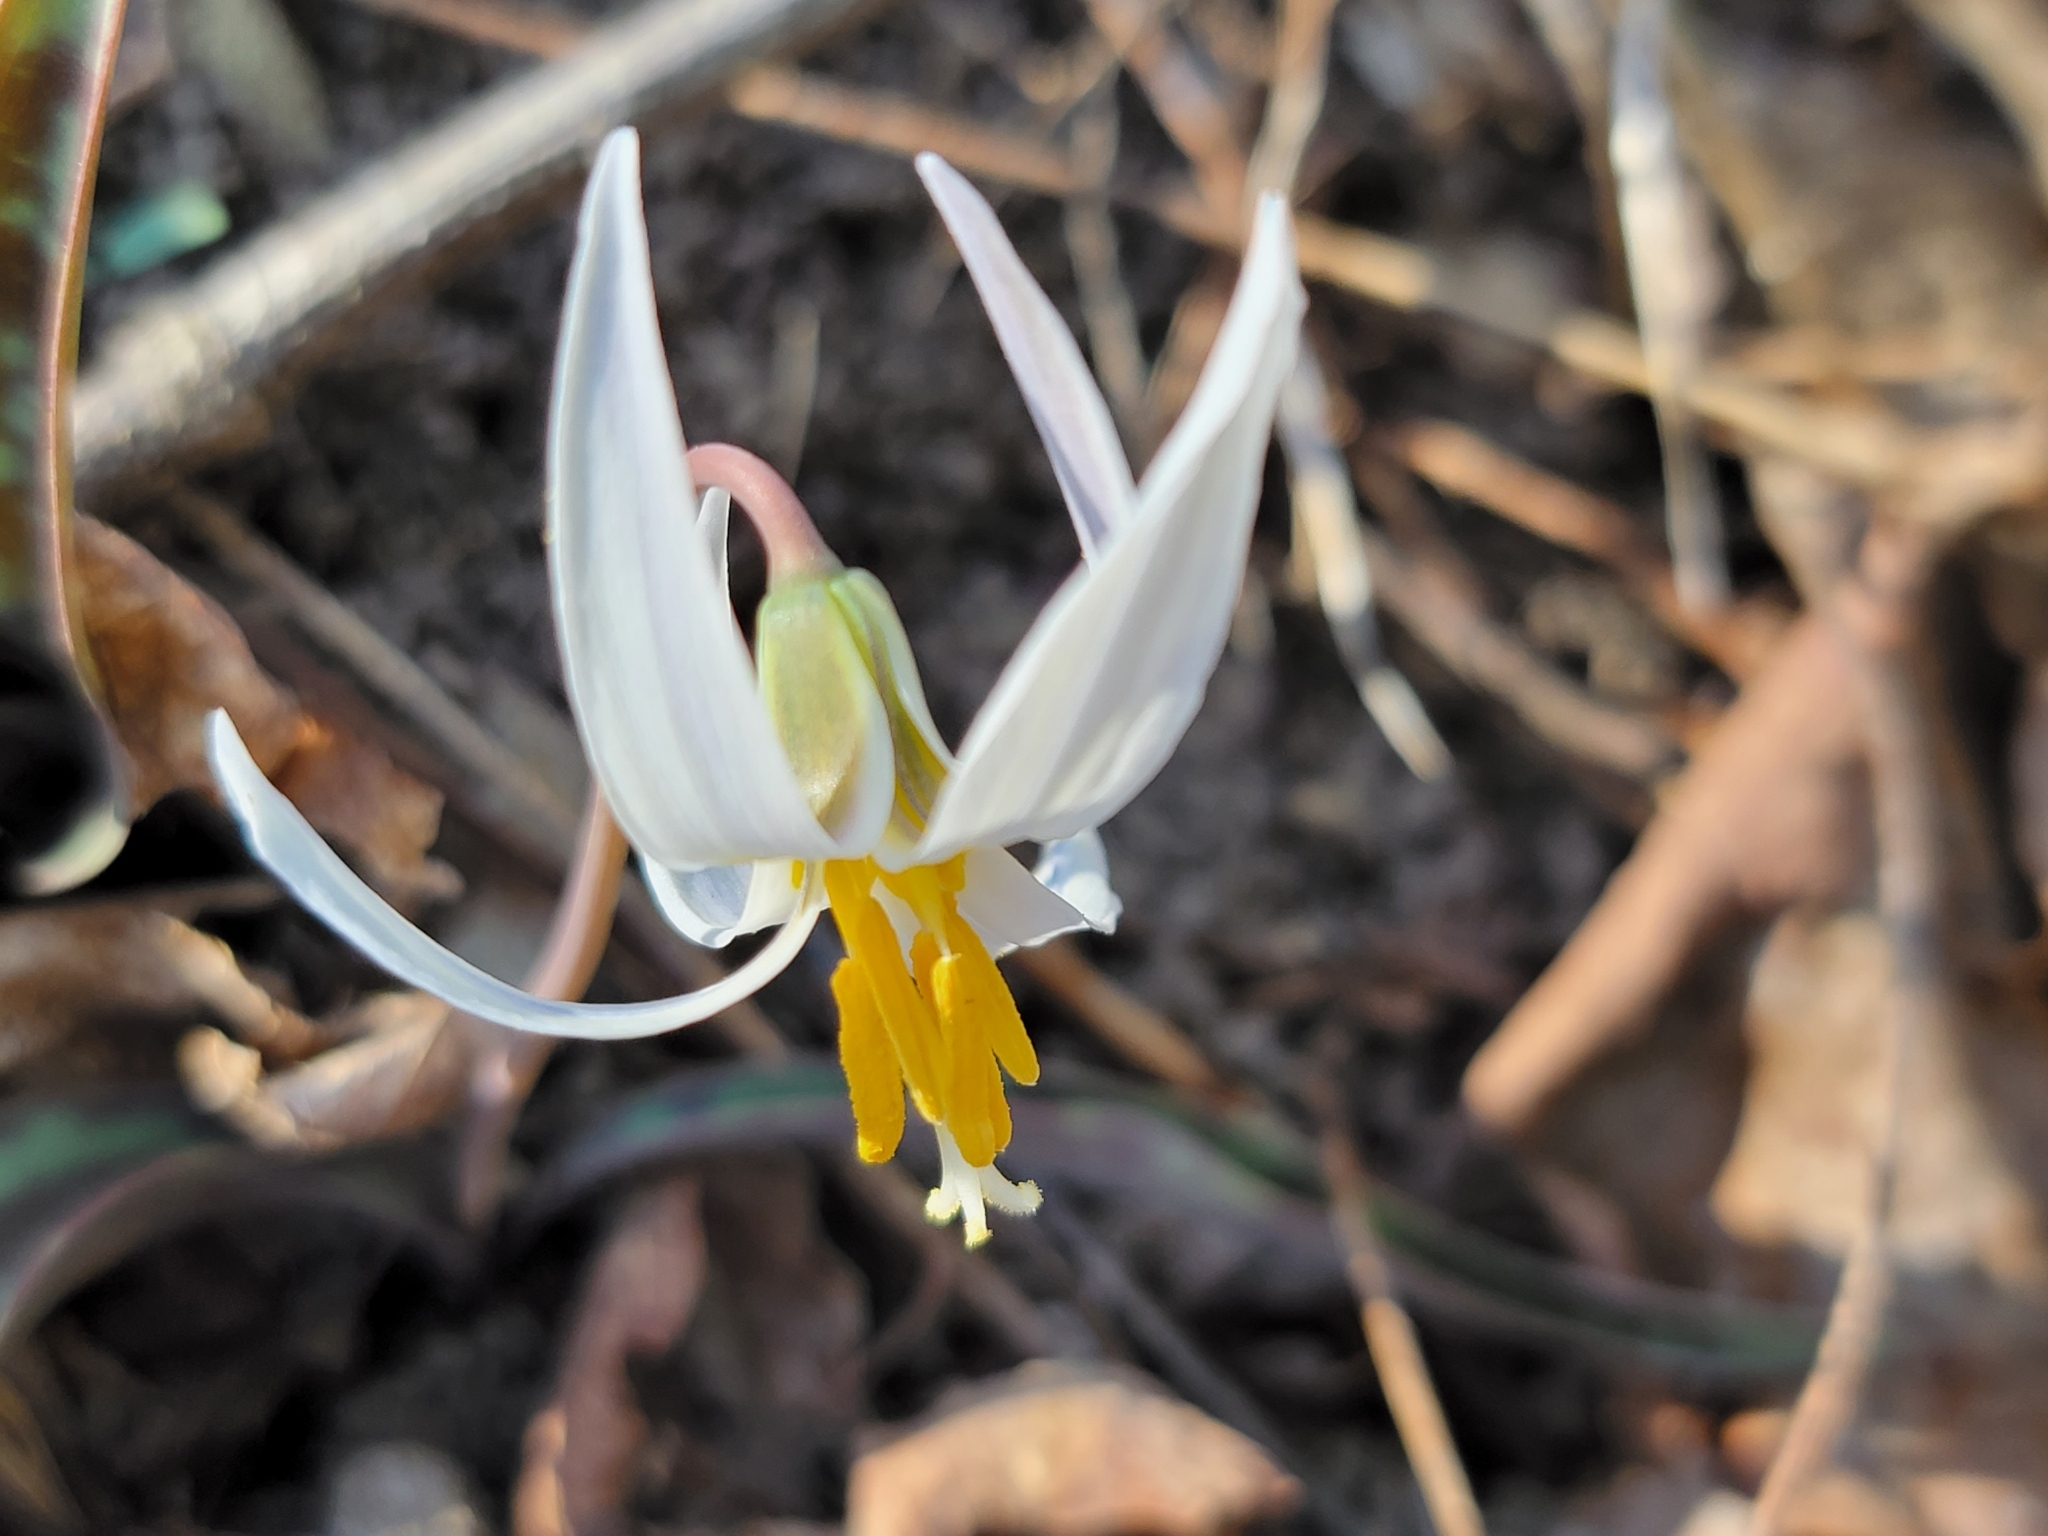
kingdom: Plantae
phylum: Tracheophyta
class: Liliopsida
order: Liliales
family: Liliaceae
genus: Erythronium
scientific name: Erythronium albidum
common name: White trout-lily
